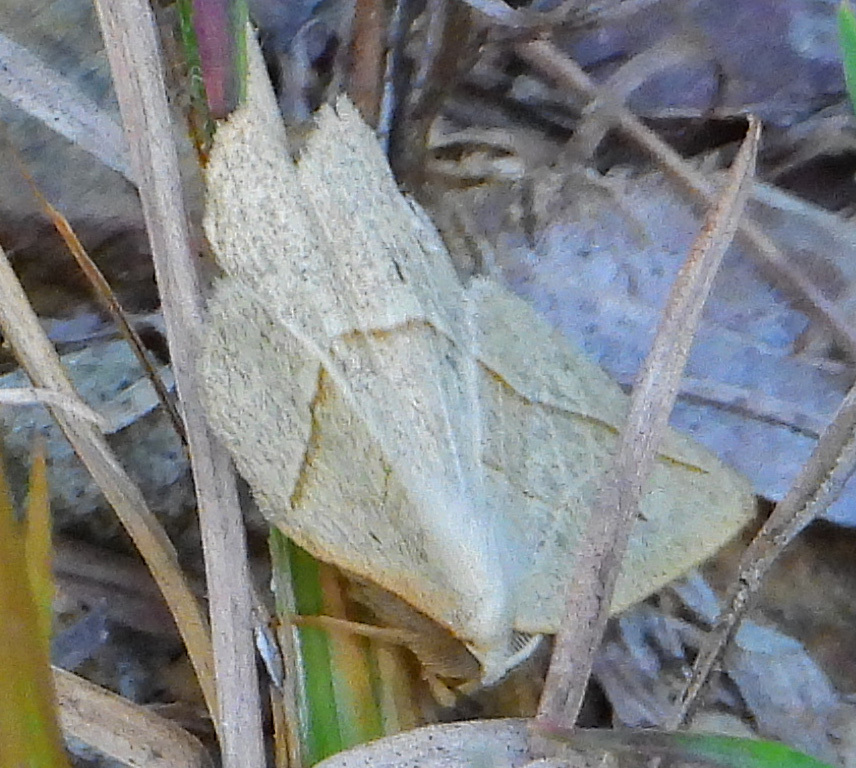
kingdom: Animalia
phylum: Arthropoda
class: Insecta
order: Lepidoptera
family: Geometridae
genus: Eusarca
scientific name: Eusarca confusaria
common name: Confused eusarca
